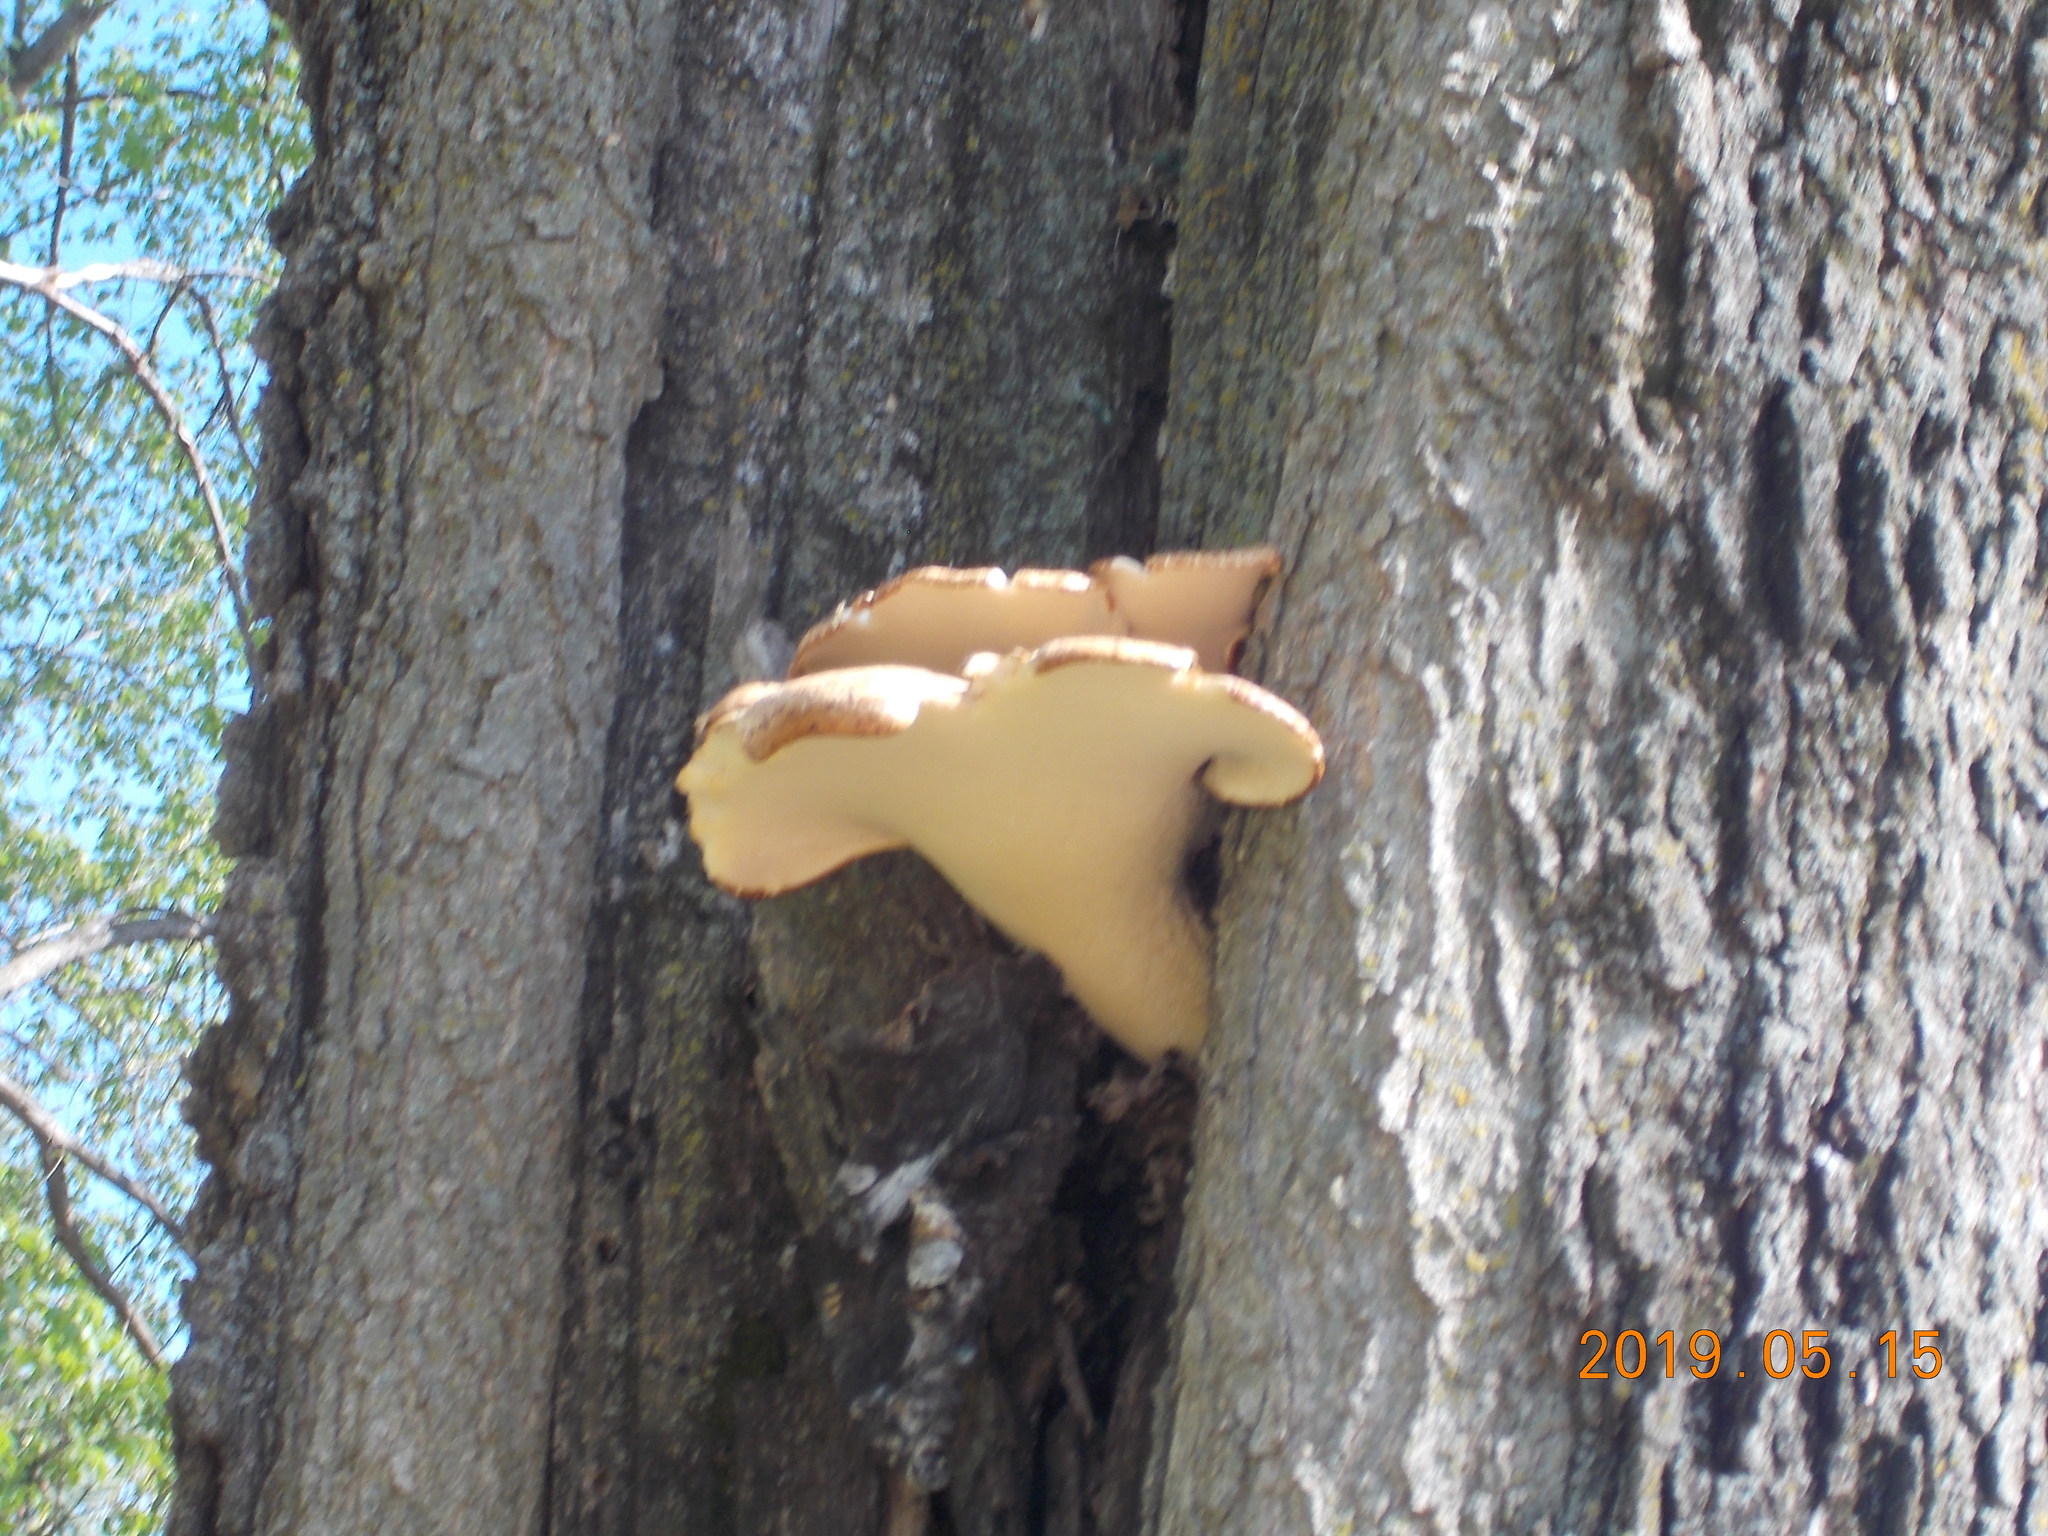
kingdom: Fungi
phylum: Basidiomycota
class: Agaricomycetes
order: Polyporales
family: Polyporaceae
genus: Cerioporus
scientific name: Cerioporus squamosus
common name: Dryad's saddle
